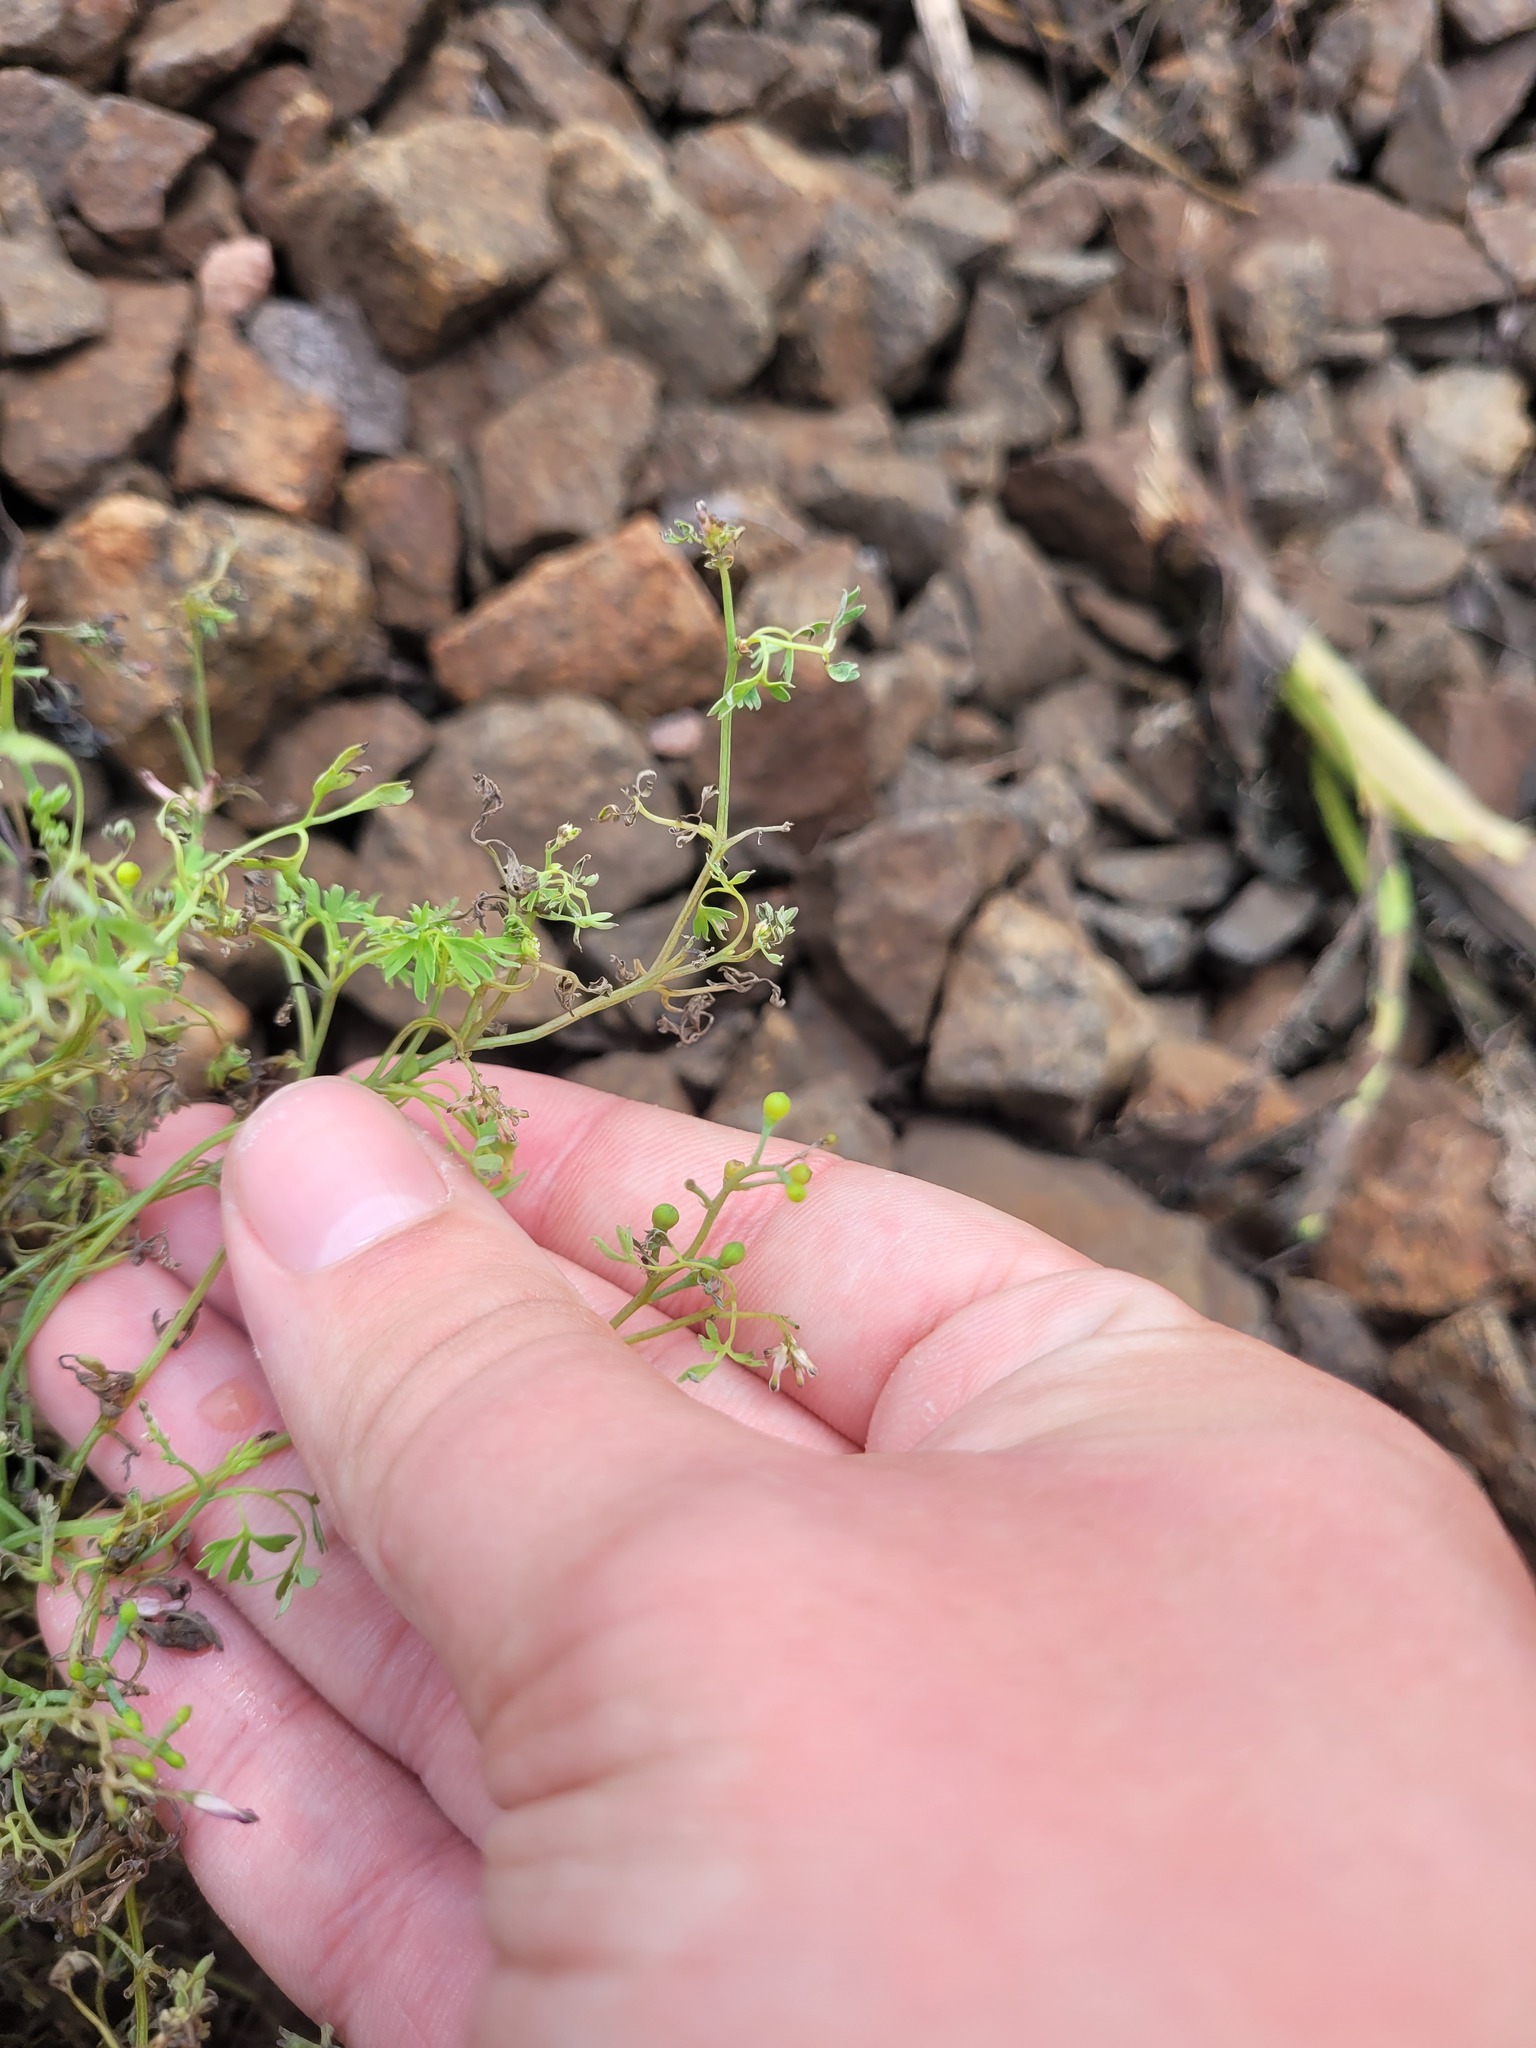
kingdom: Plantae
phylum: Tracheophyta
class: Magnoliopsida
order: Ranunculales
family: Papaveraceae
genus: Fumaria
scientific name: Fumaria schleicheri
